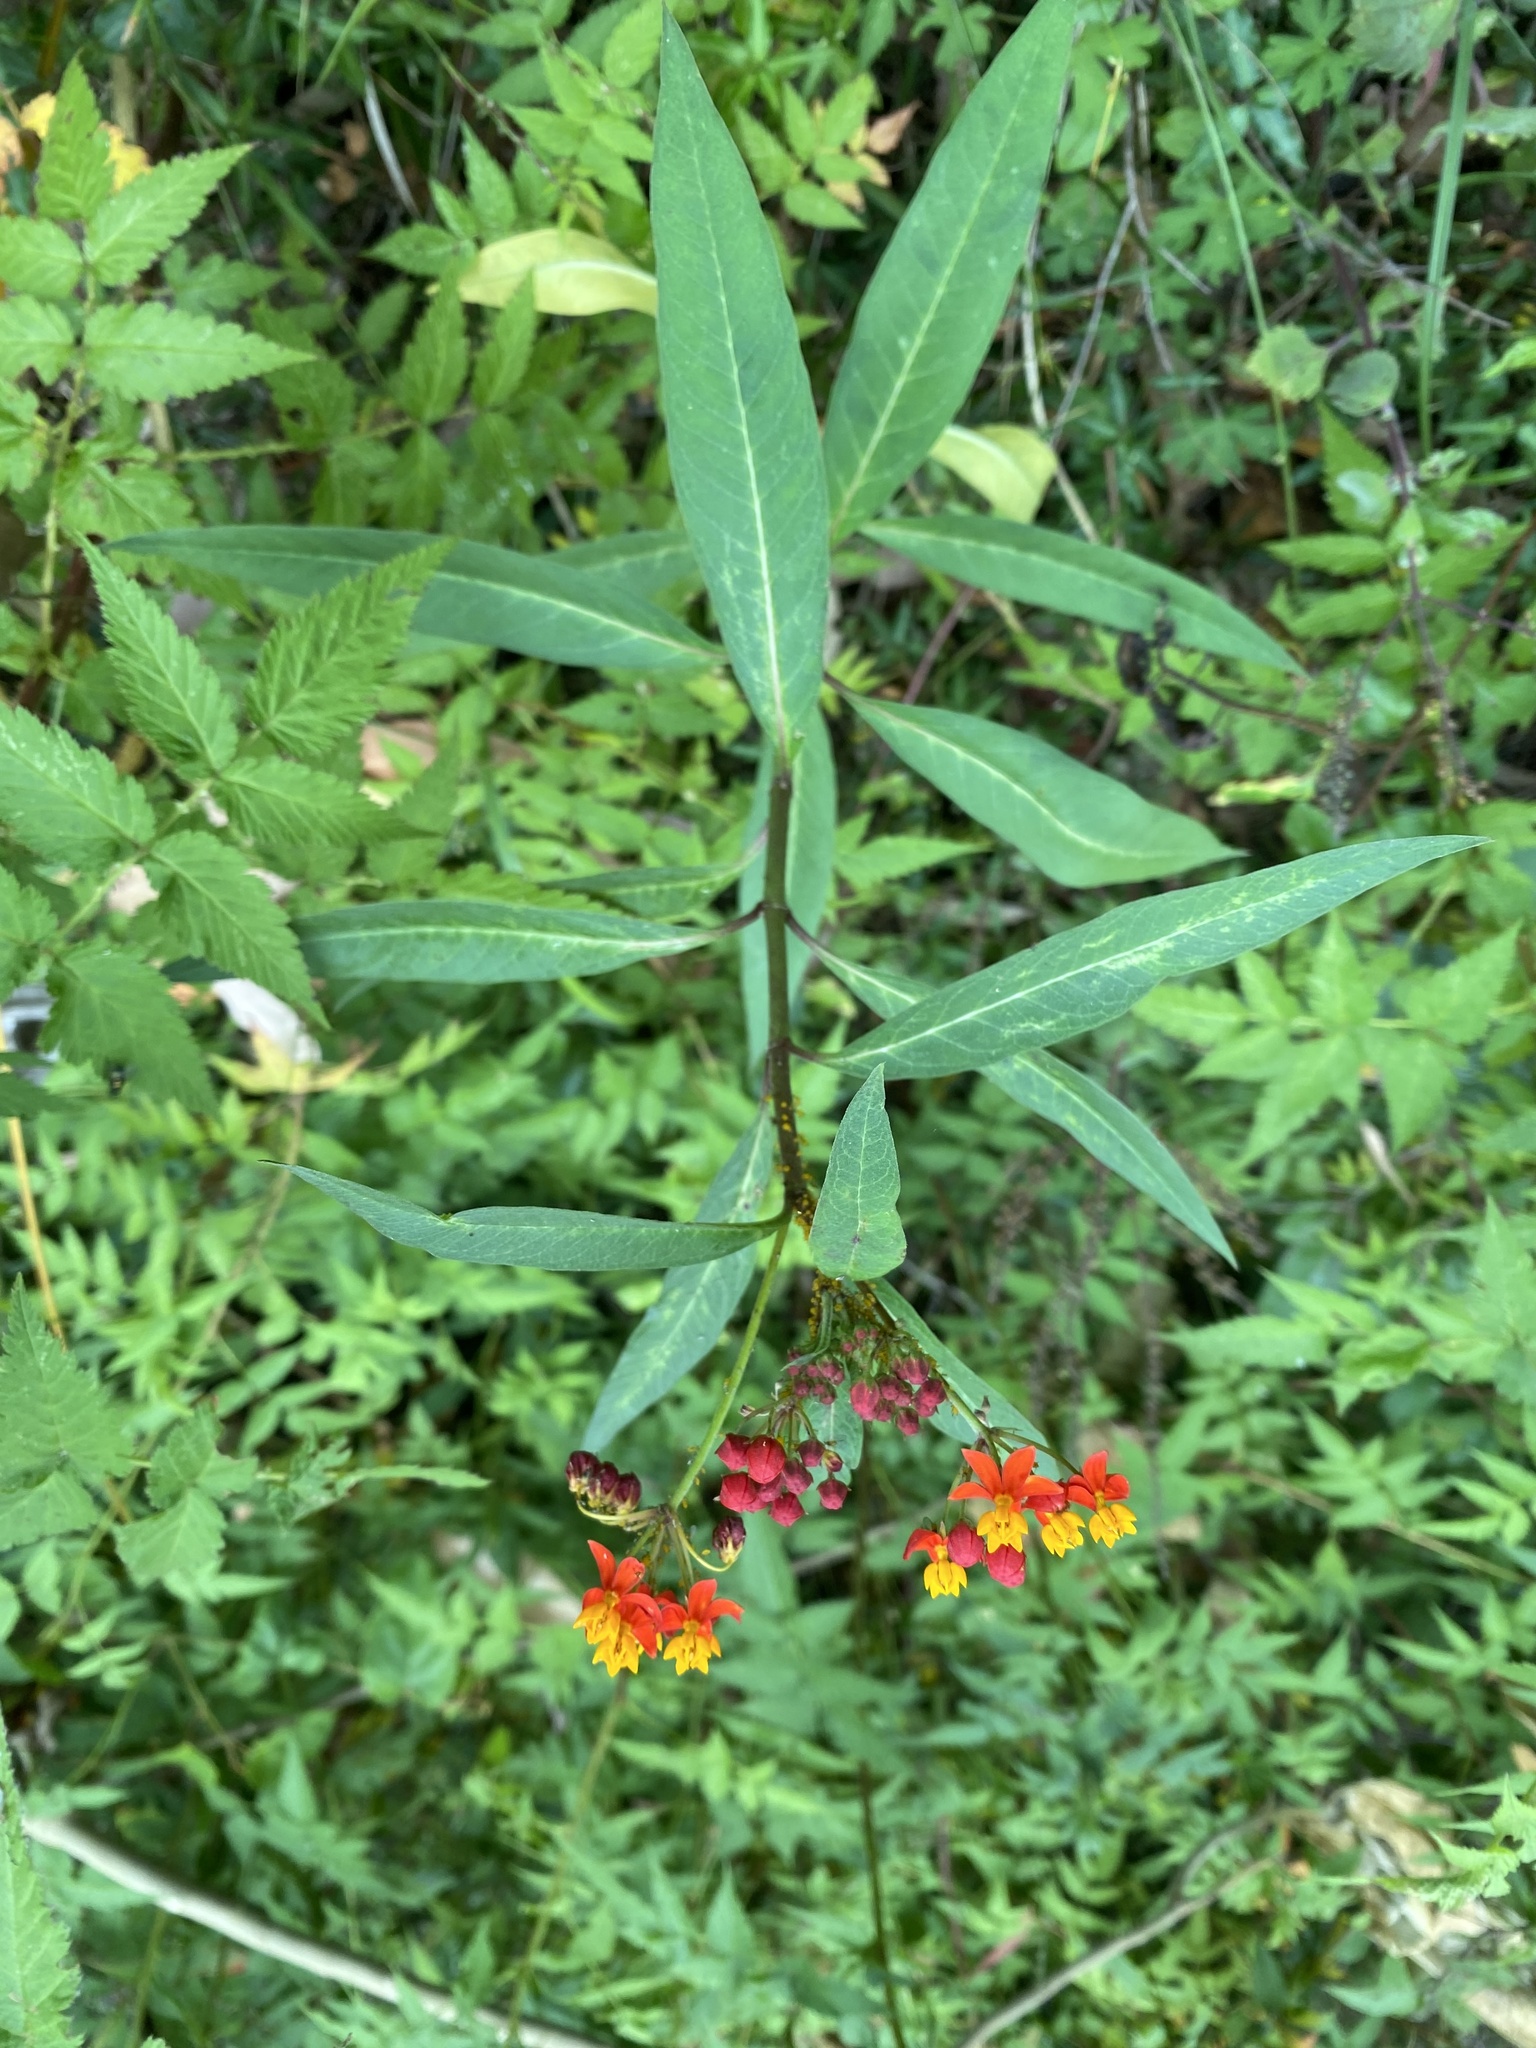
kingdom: Plantae
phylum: Tracheophyta
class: Magnoliopsida
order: Gentianales
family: Apocynaceae
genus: Asclepias
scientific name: Asclepias curassavica
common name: Bloodflower
